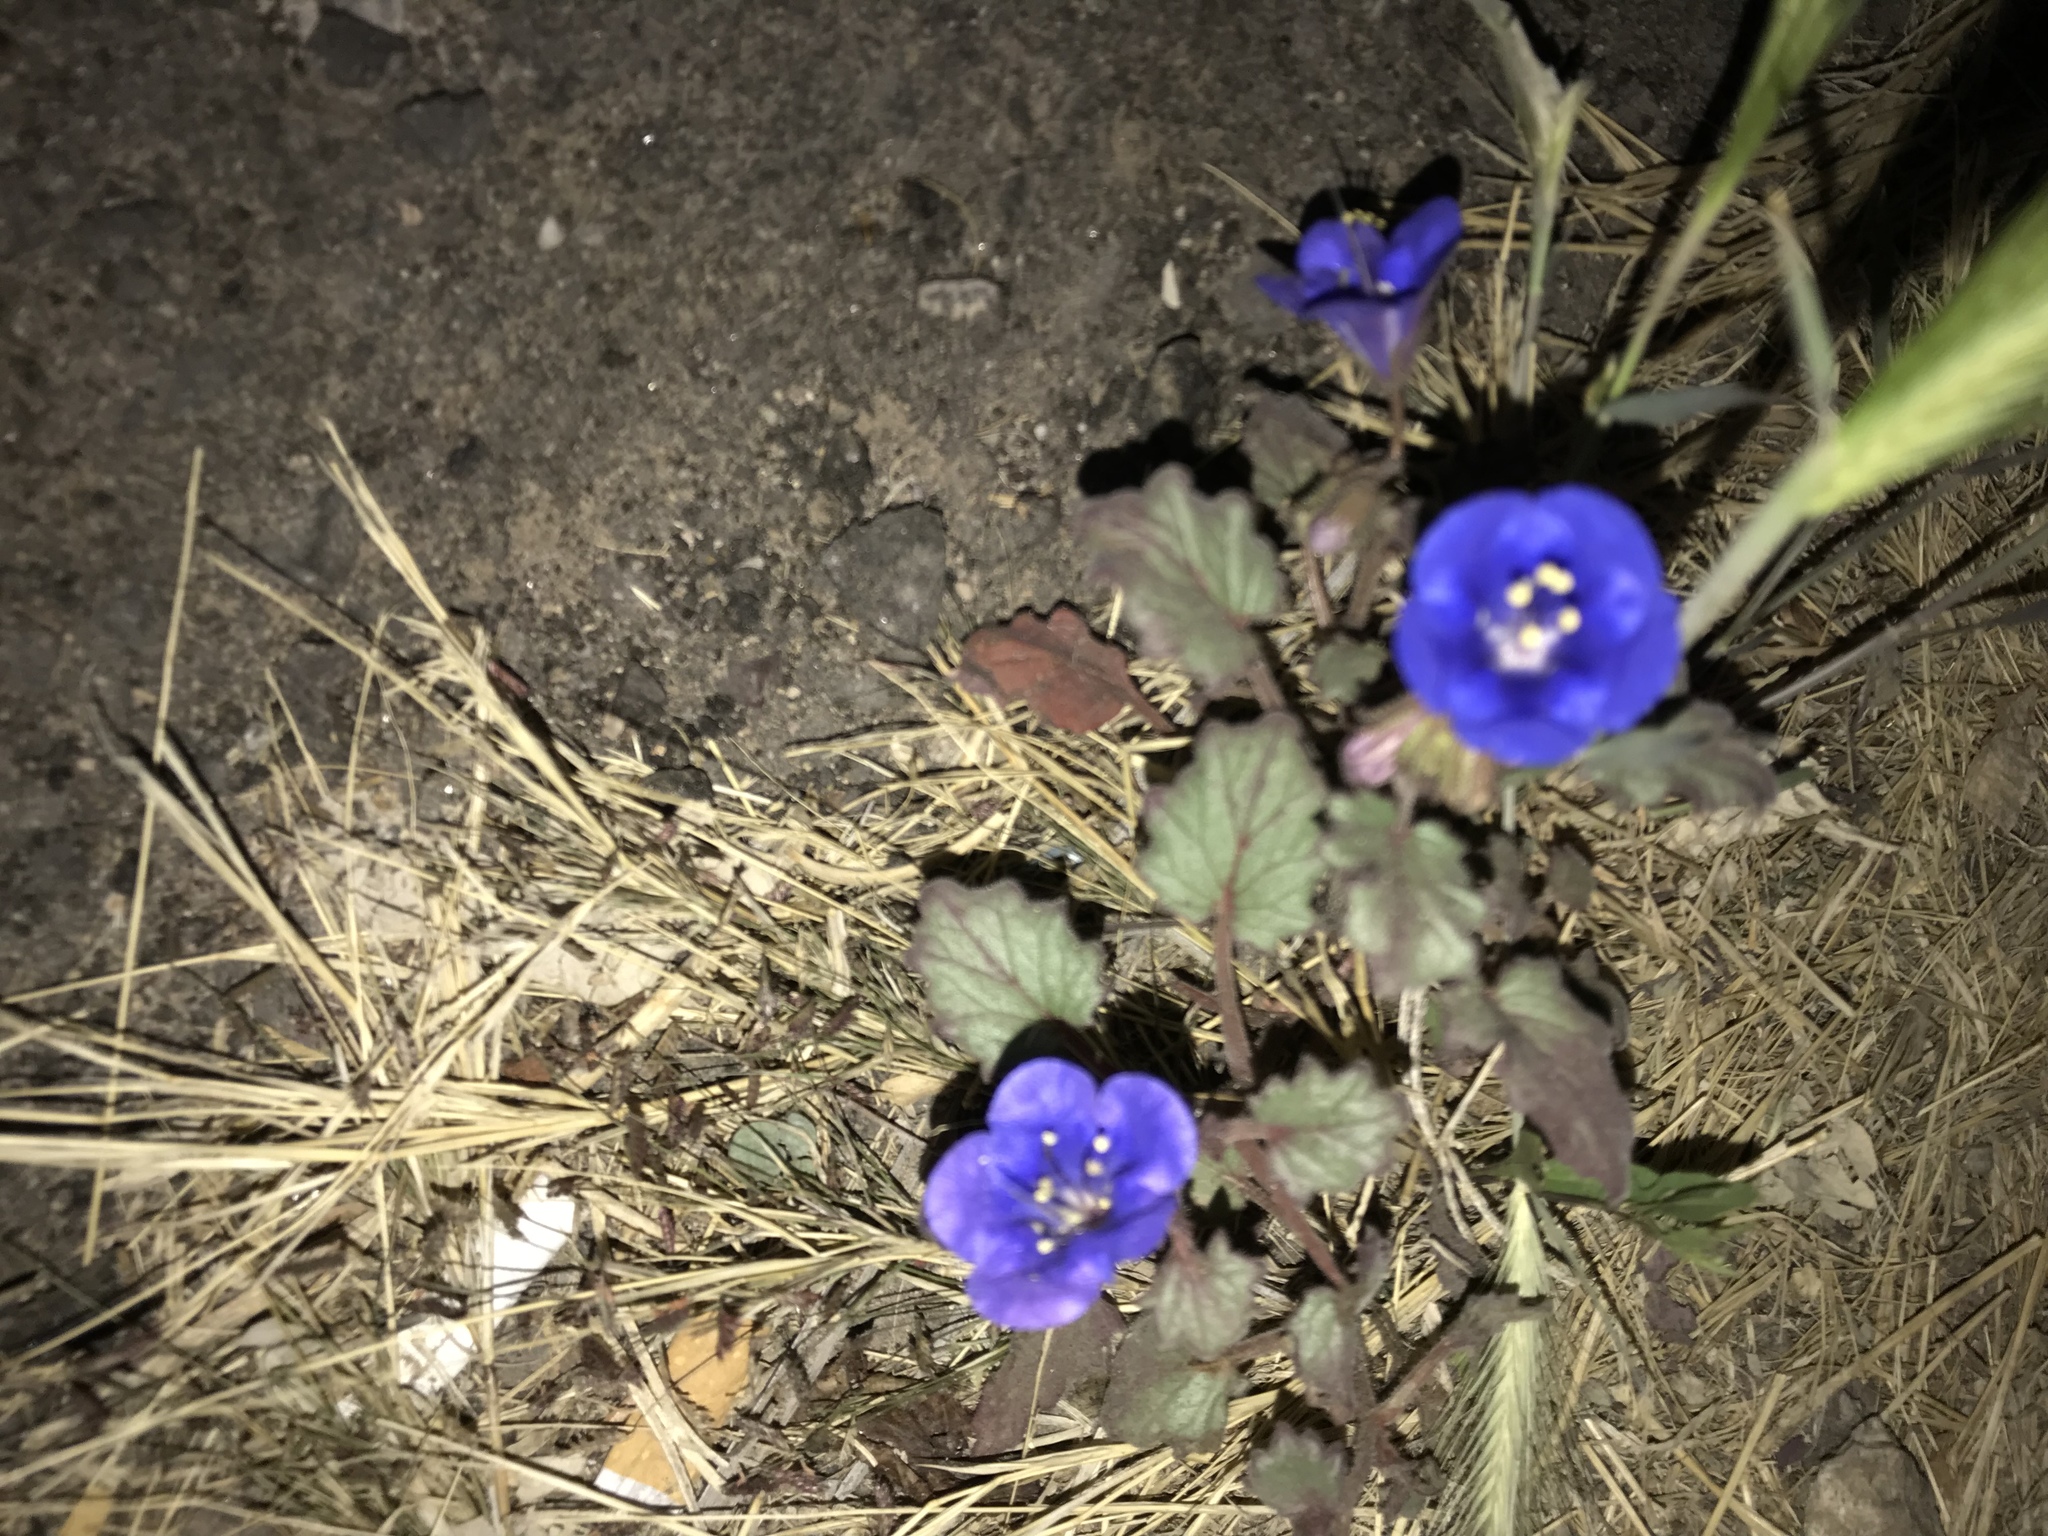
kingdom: Plantae
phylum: Tracheophyta
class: Magnoliopsida
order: Boraginales
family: Hydrophyllaceae
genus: Phacelia
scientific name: Phacelia campanularia
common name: California bluebell
